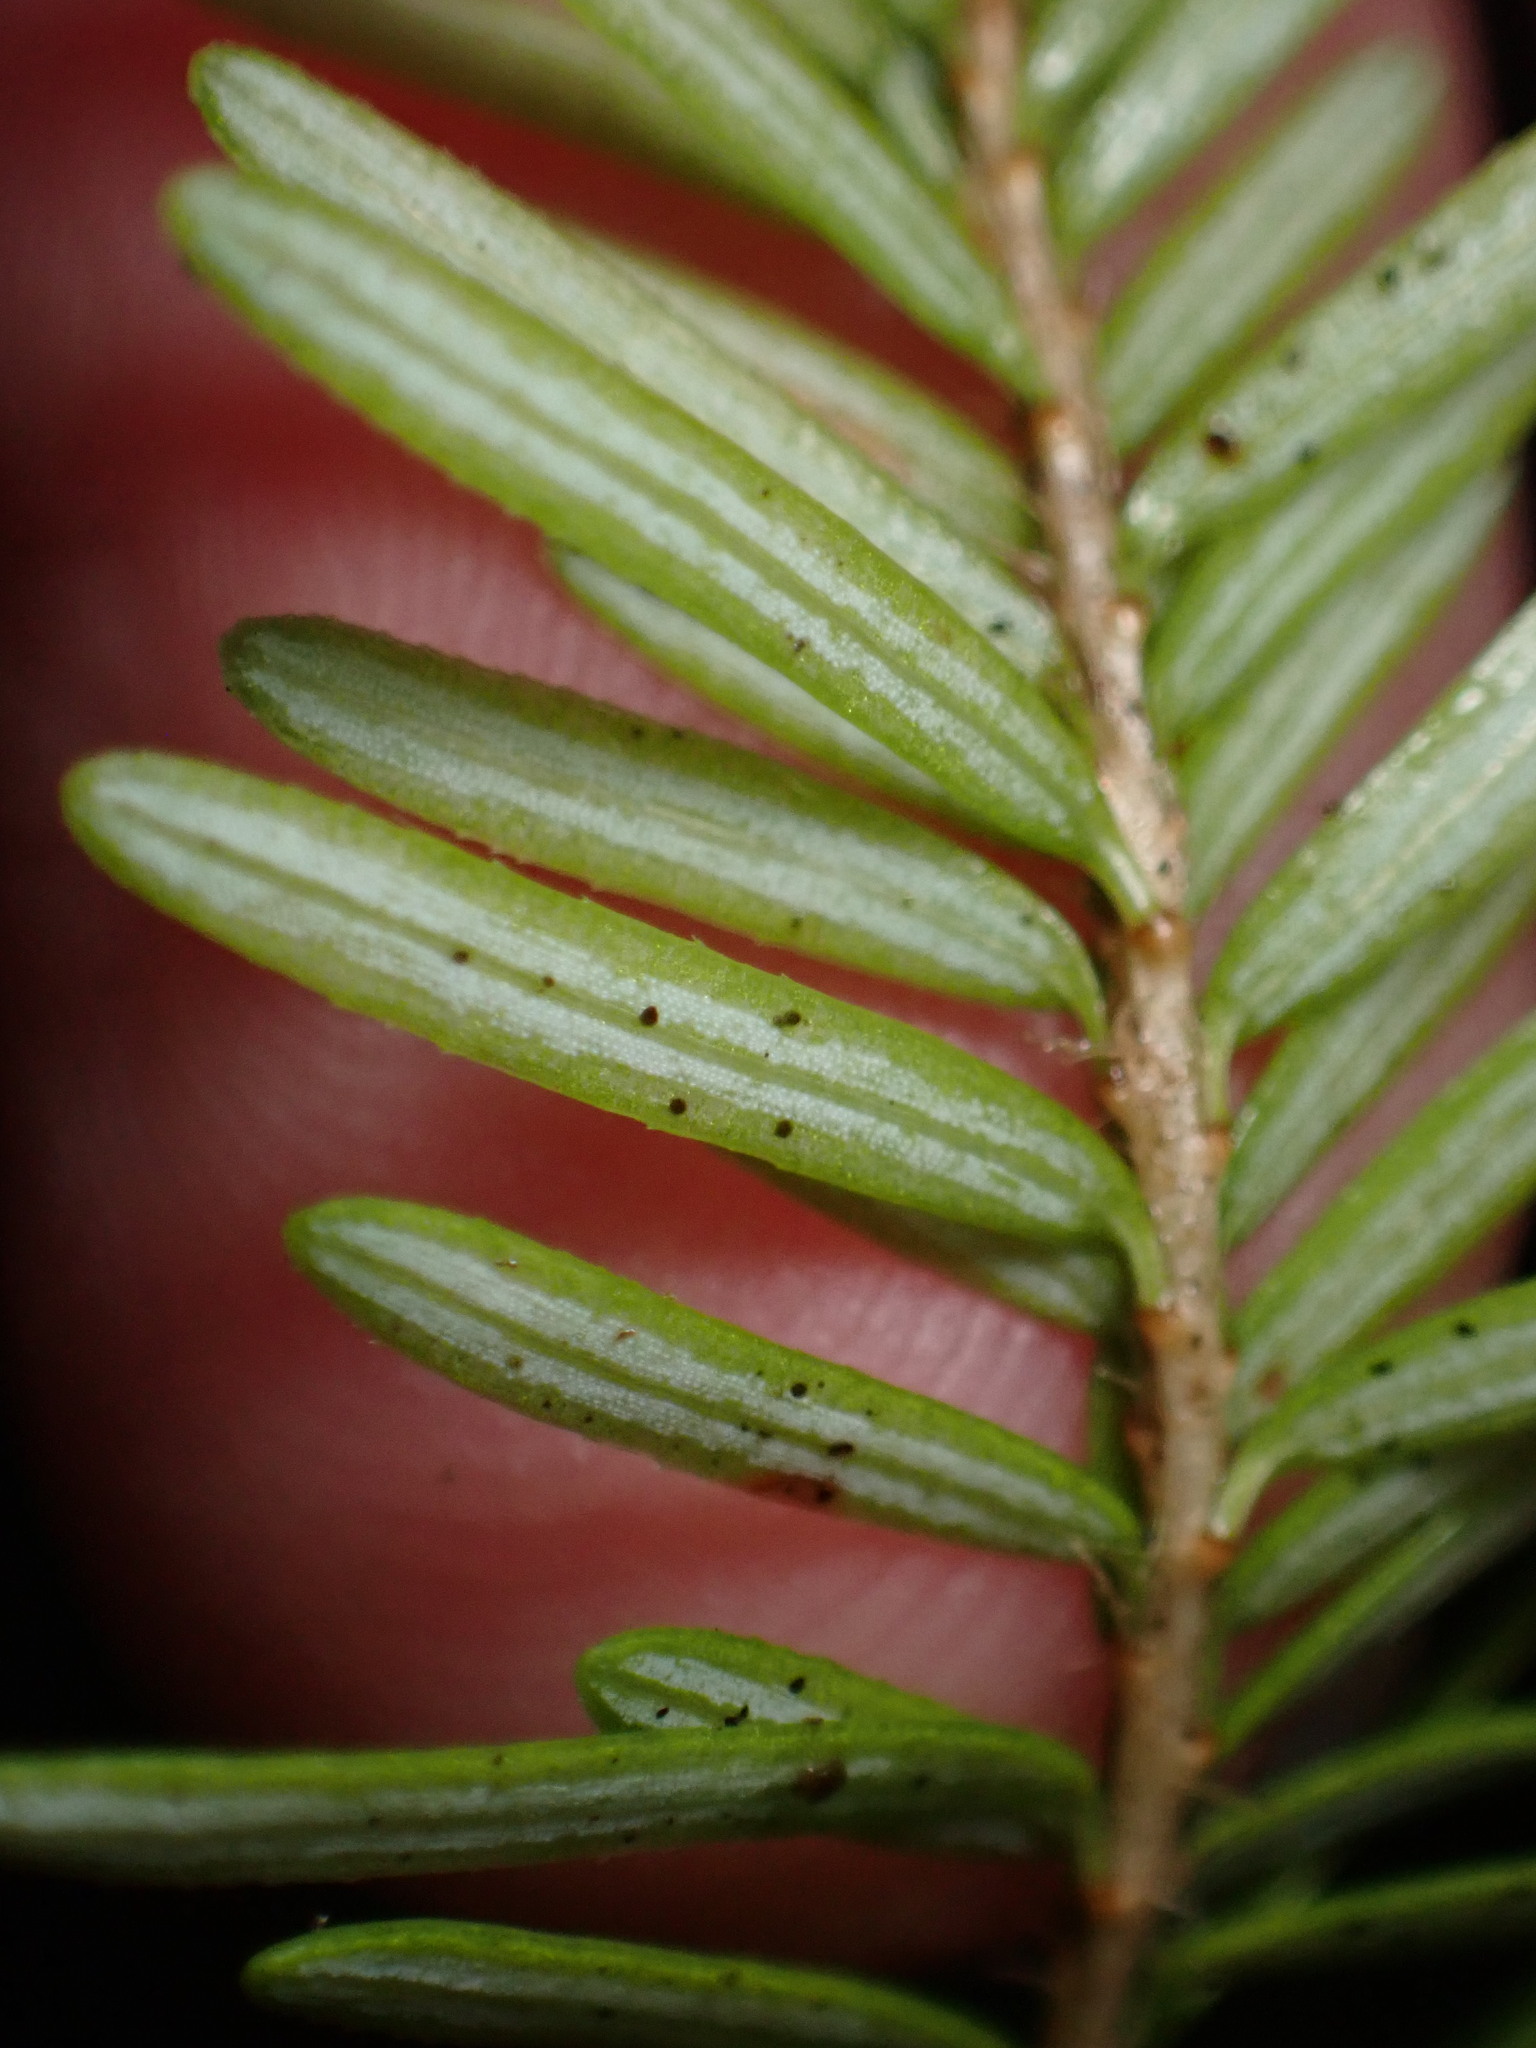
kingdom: Plantae
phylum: Tracheophyta
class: Pinopsida
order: Pinales
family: Pinaceae
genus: Tsuga
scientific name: Tsuga heterophylla
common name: Western hemlock
